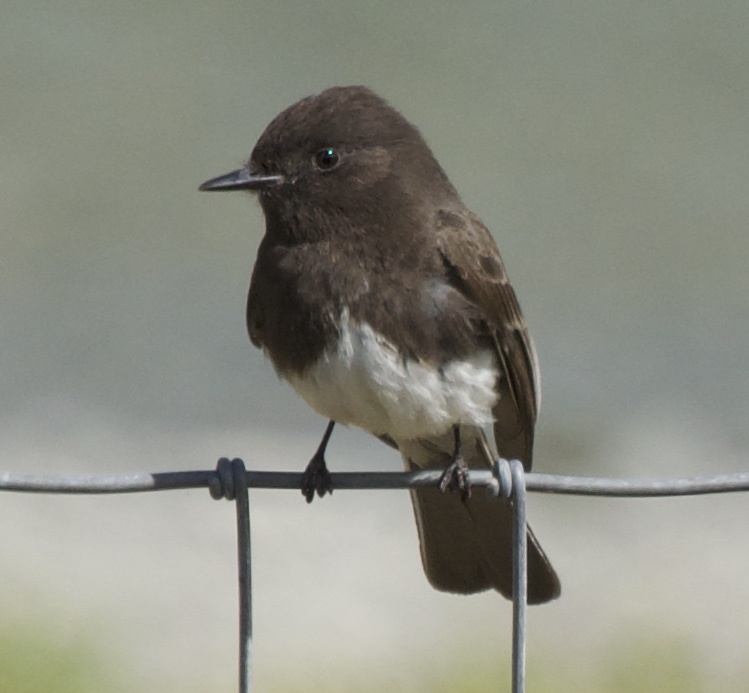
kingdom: Animalia
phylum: Chordata
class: Aves
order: Passeriformes
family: Tyrannidae
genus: Sayornis
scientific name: Sayornis nigricans
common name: Black phoebe
